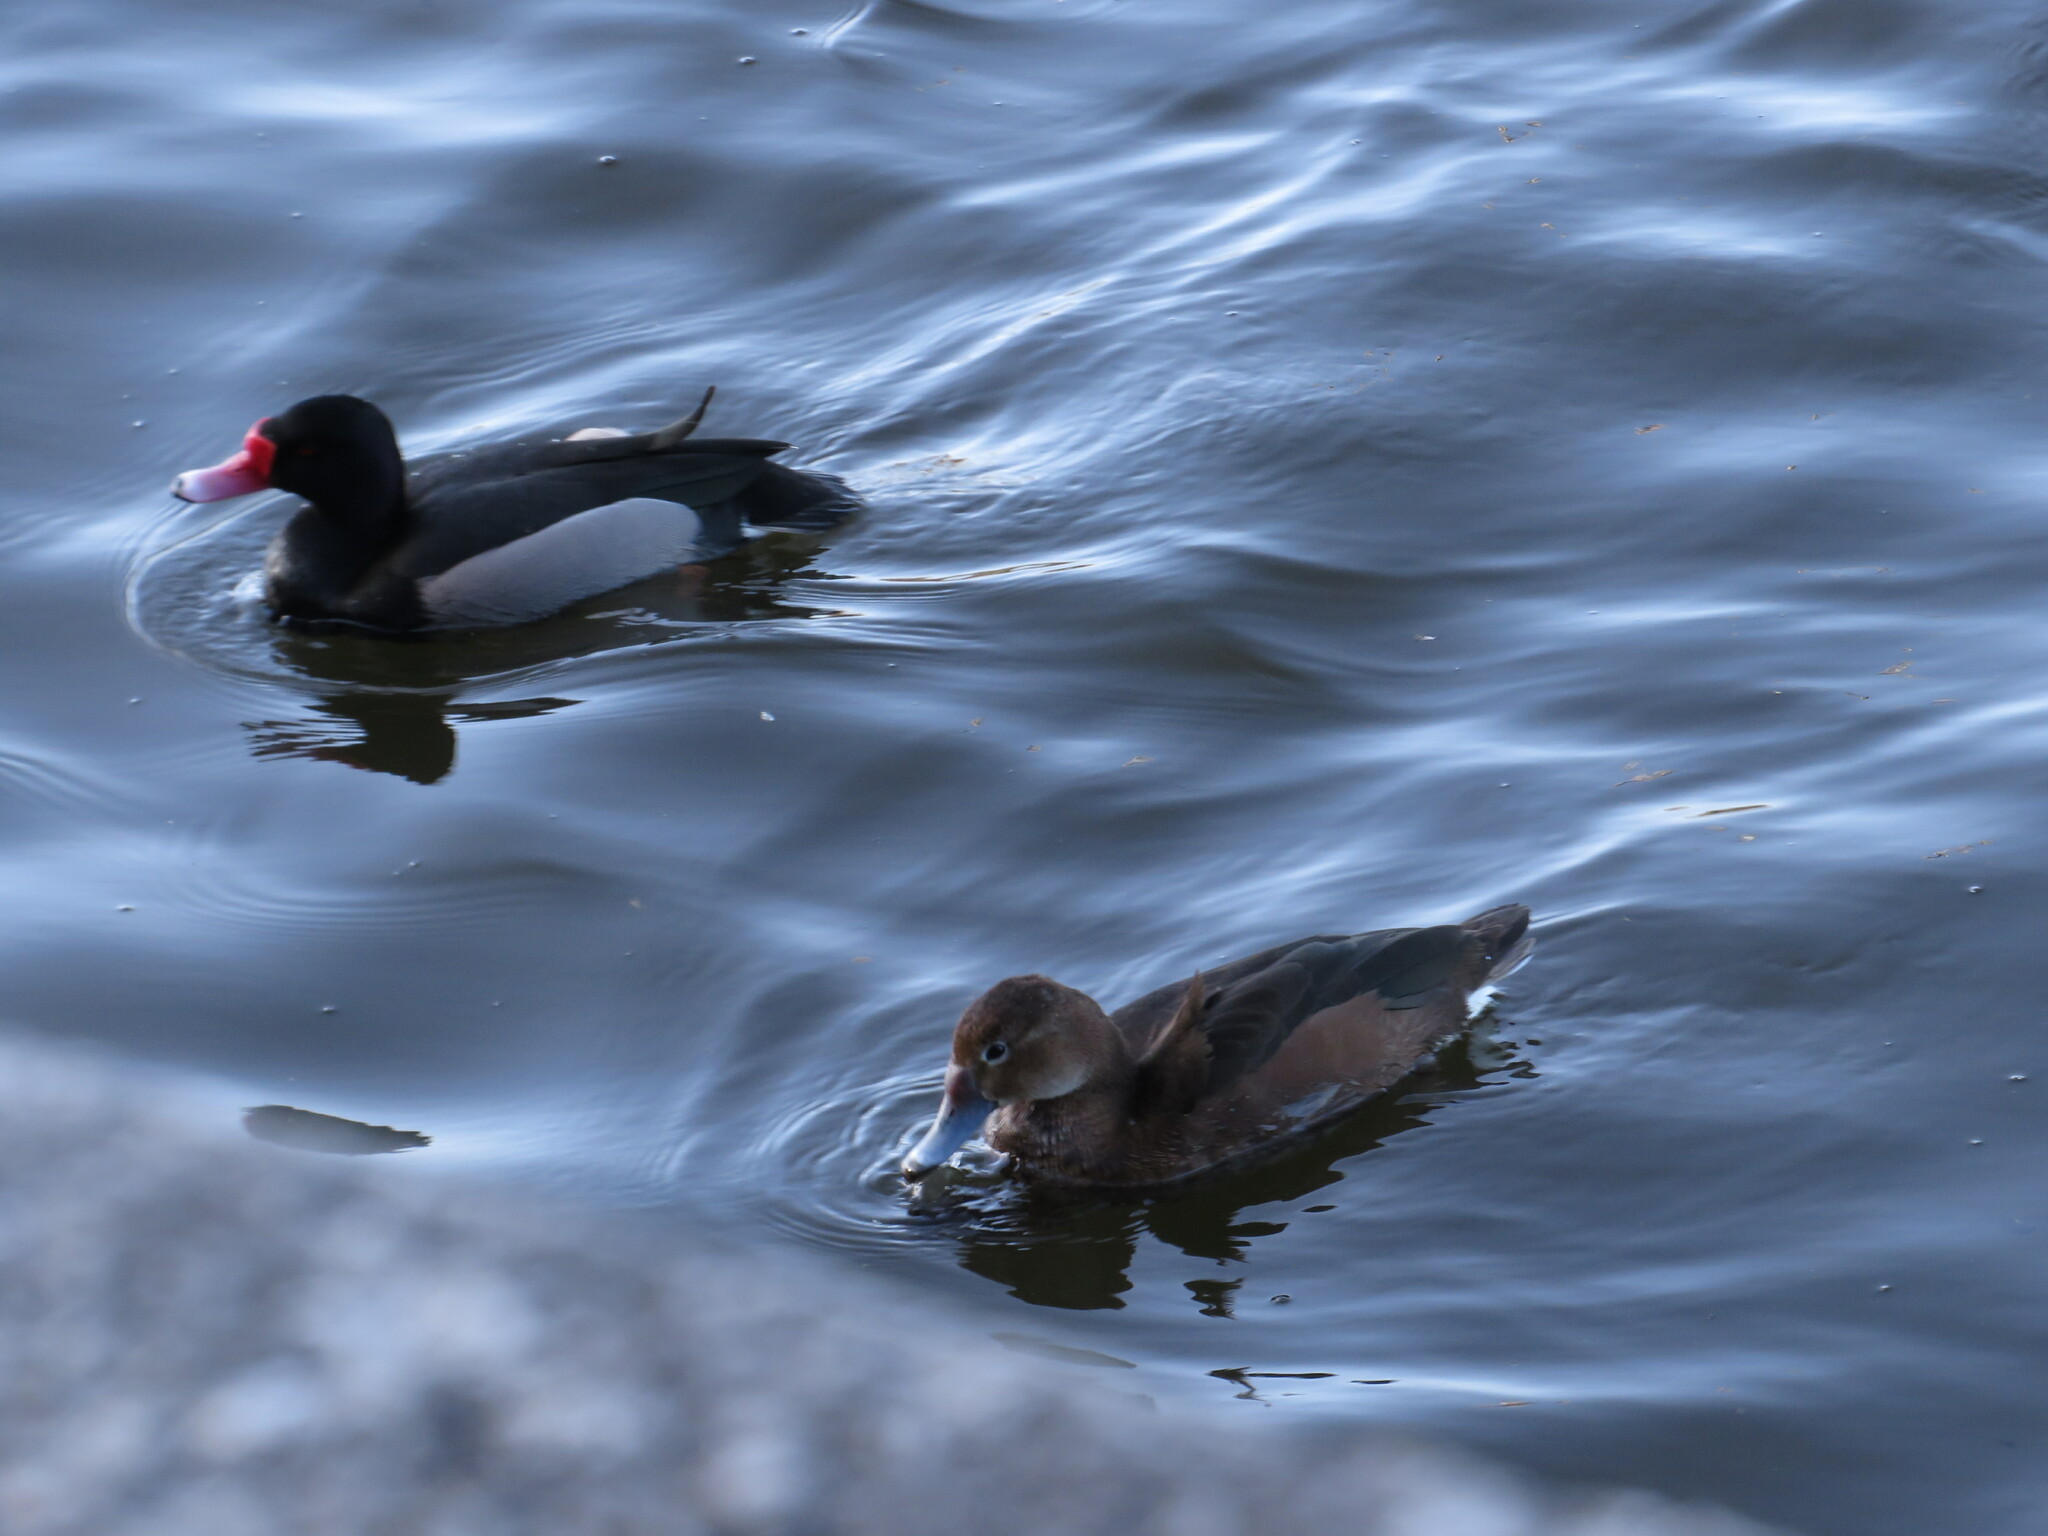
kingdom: Animalia
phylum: Chordata
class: Aves
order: Anseriformes
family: Anatidae
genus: Netta
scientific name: Netta peposaca
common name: Rosy-billed pochard
